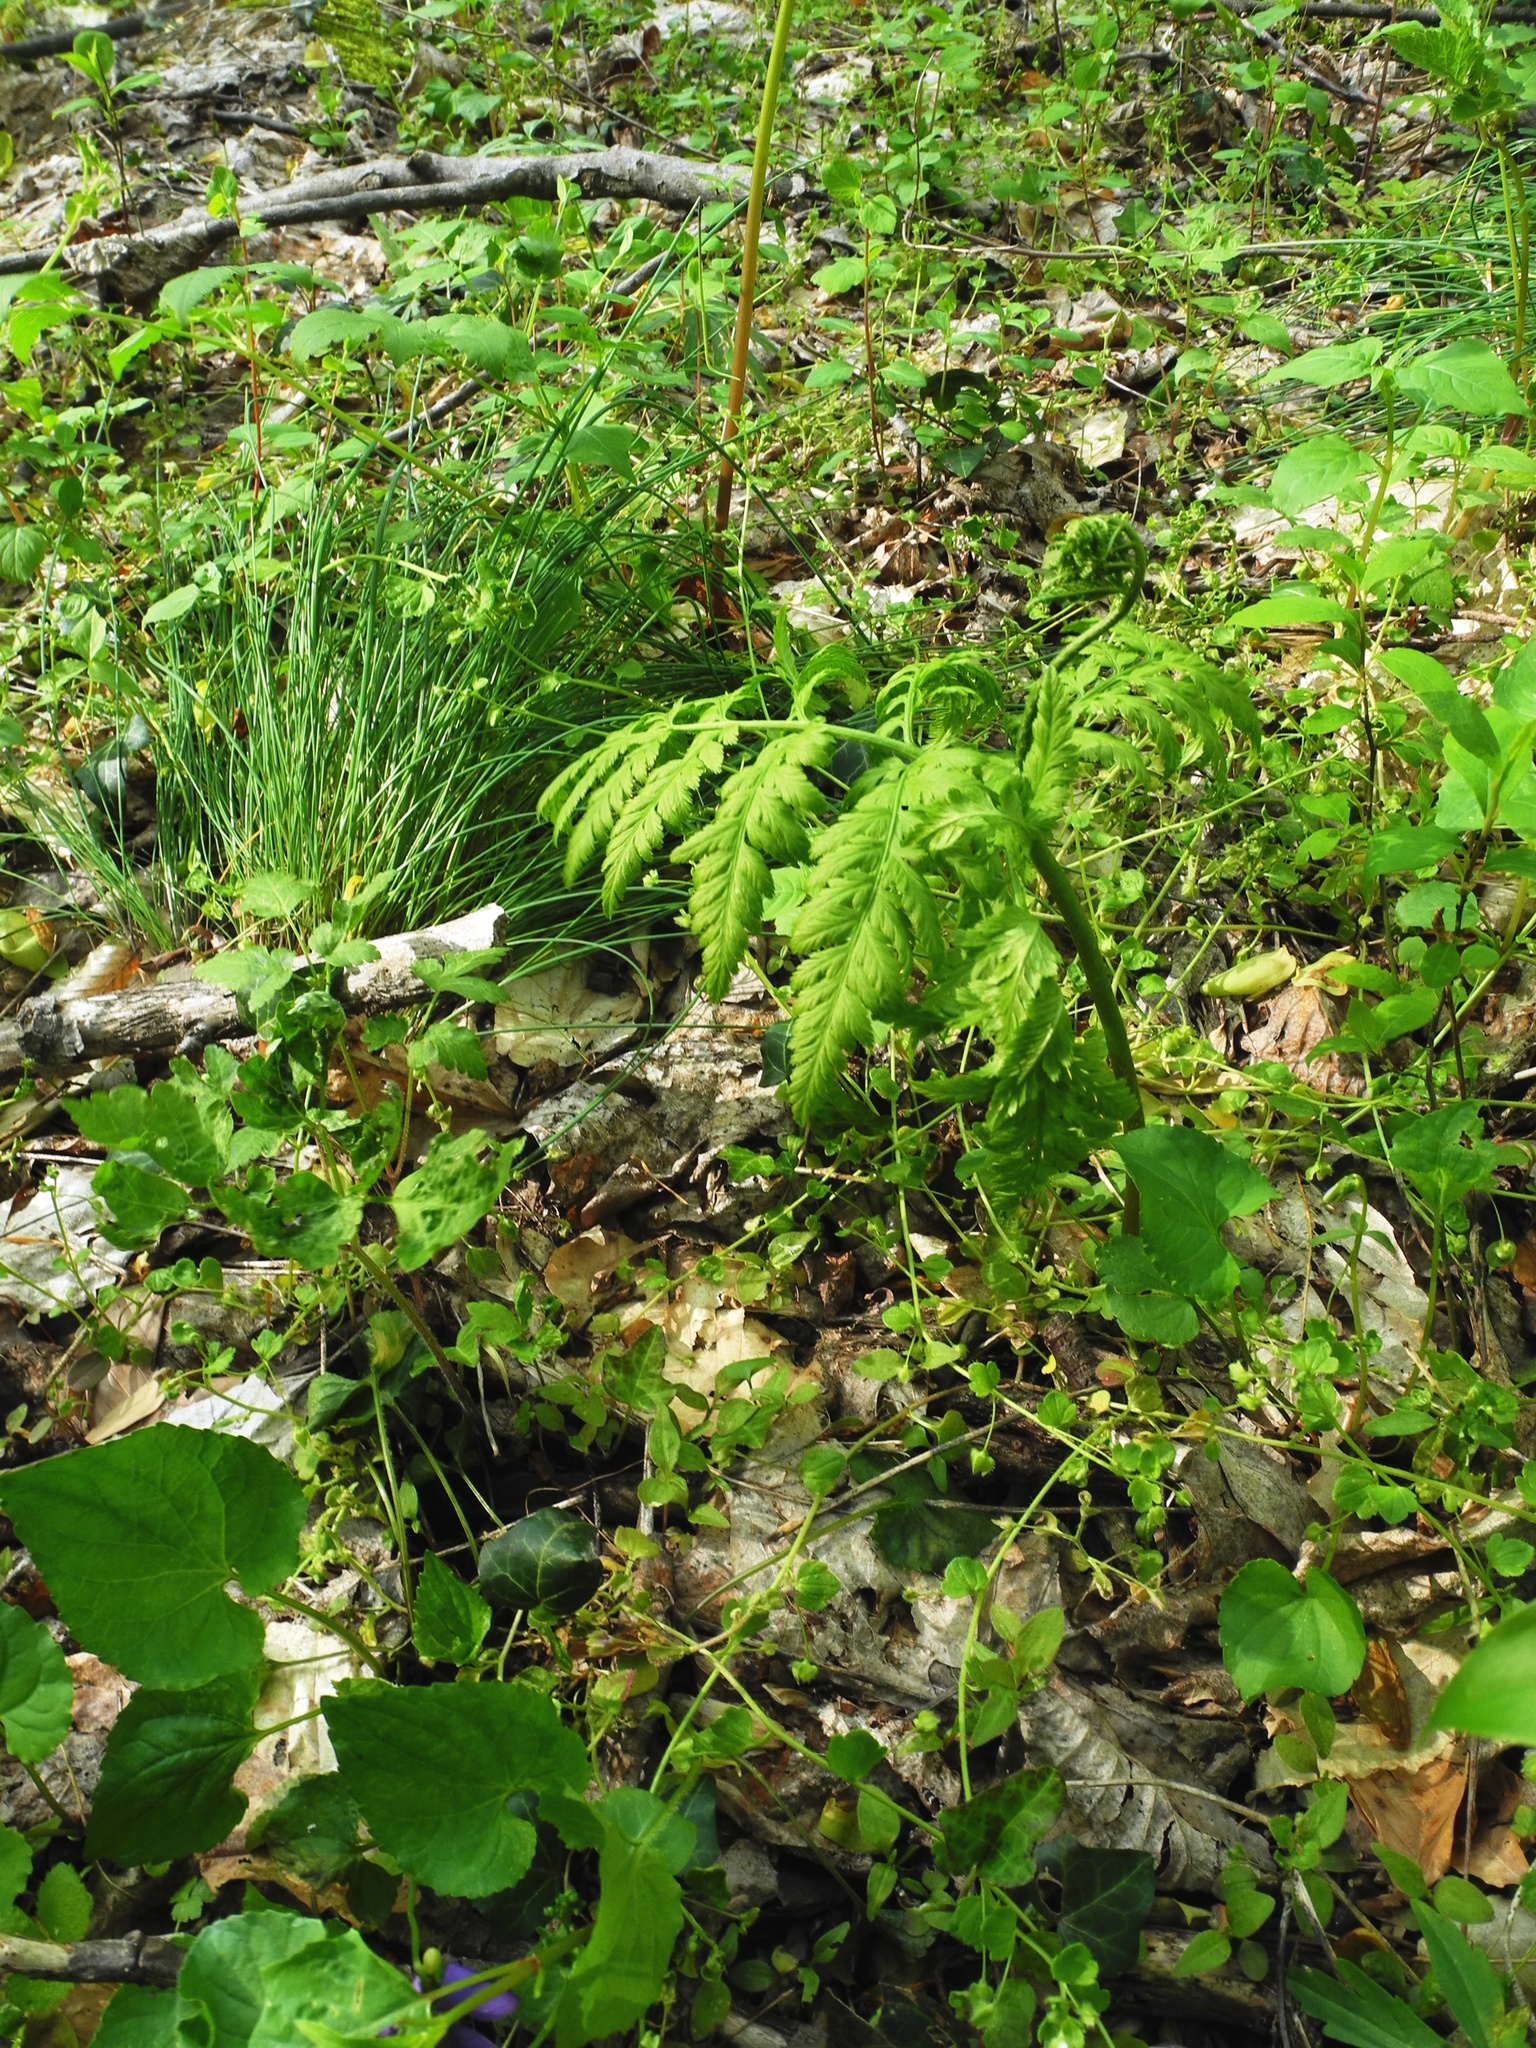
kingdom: Plantae
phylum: Tracheophyta
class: Polypodiopsida
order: Ophioglossales
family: Ophioglossaceae
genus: Botrypus
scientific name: Botrypus virginianus
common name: Common grapefern
